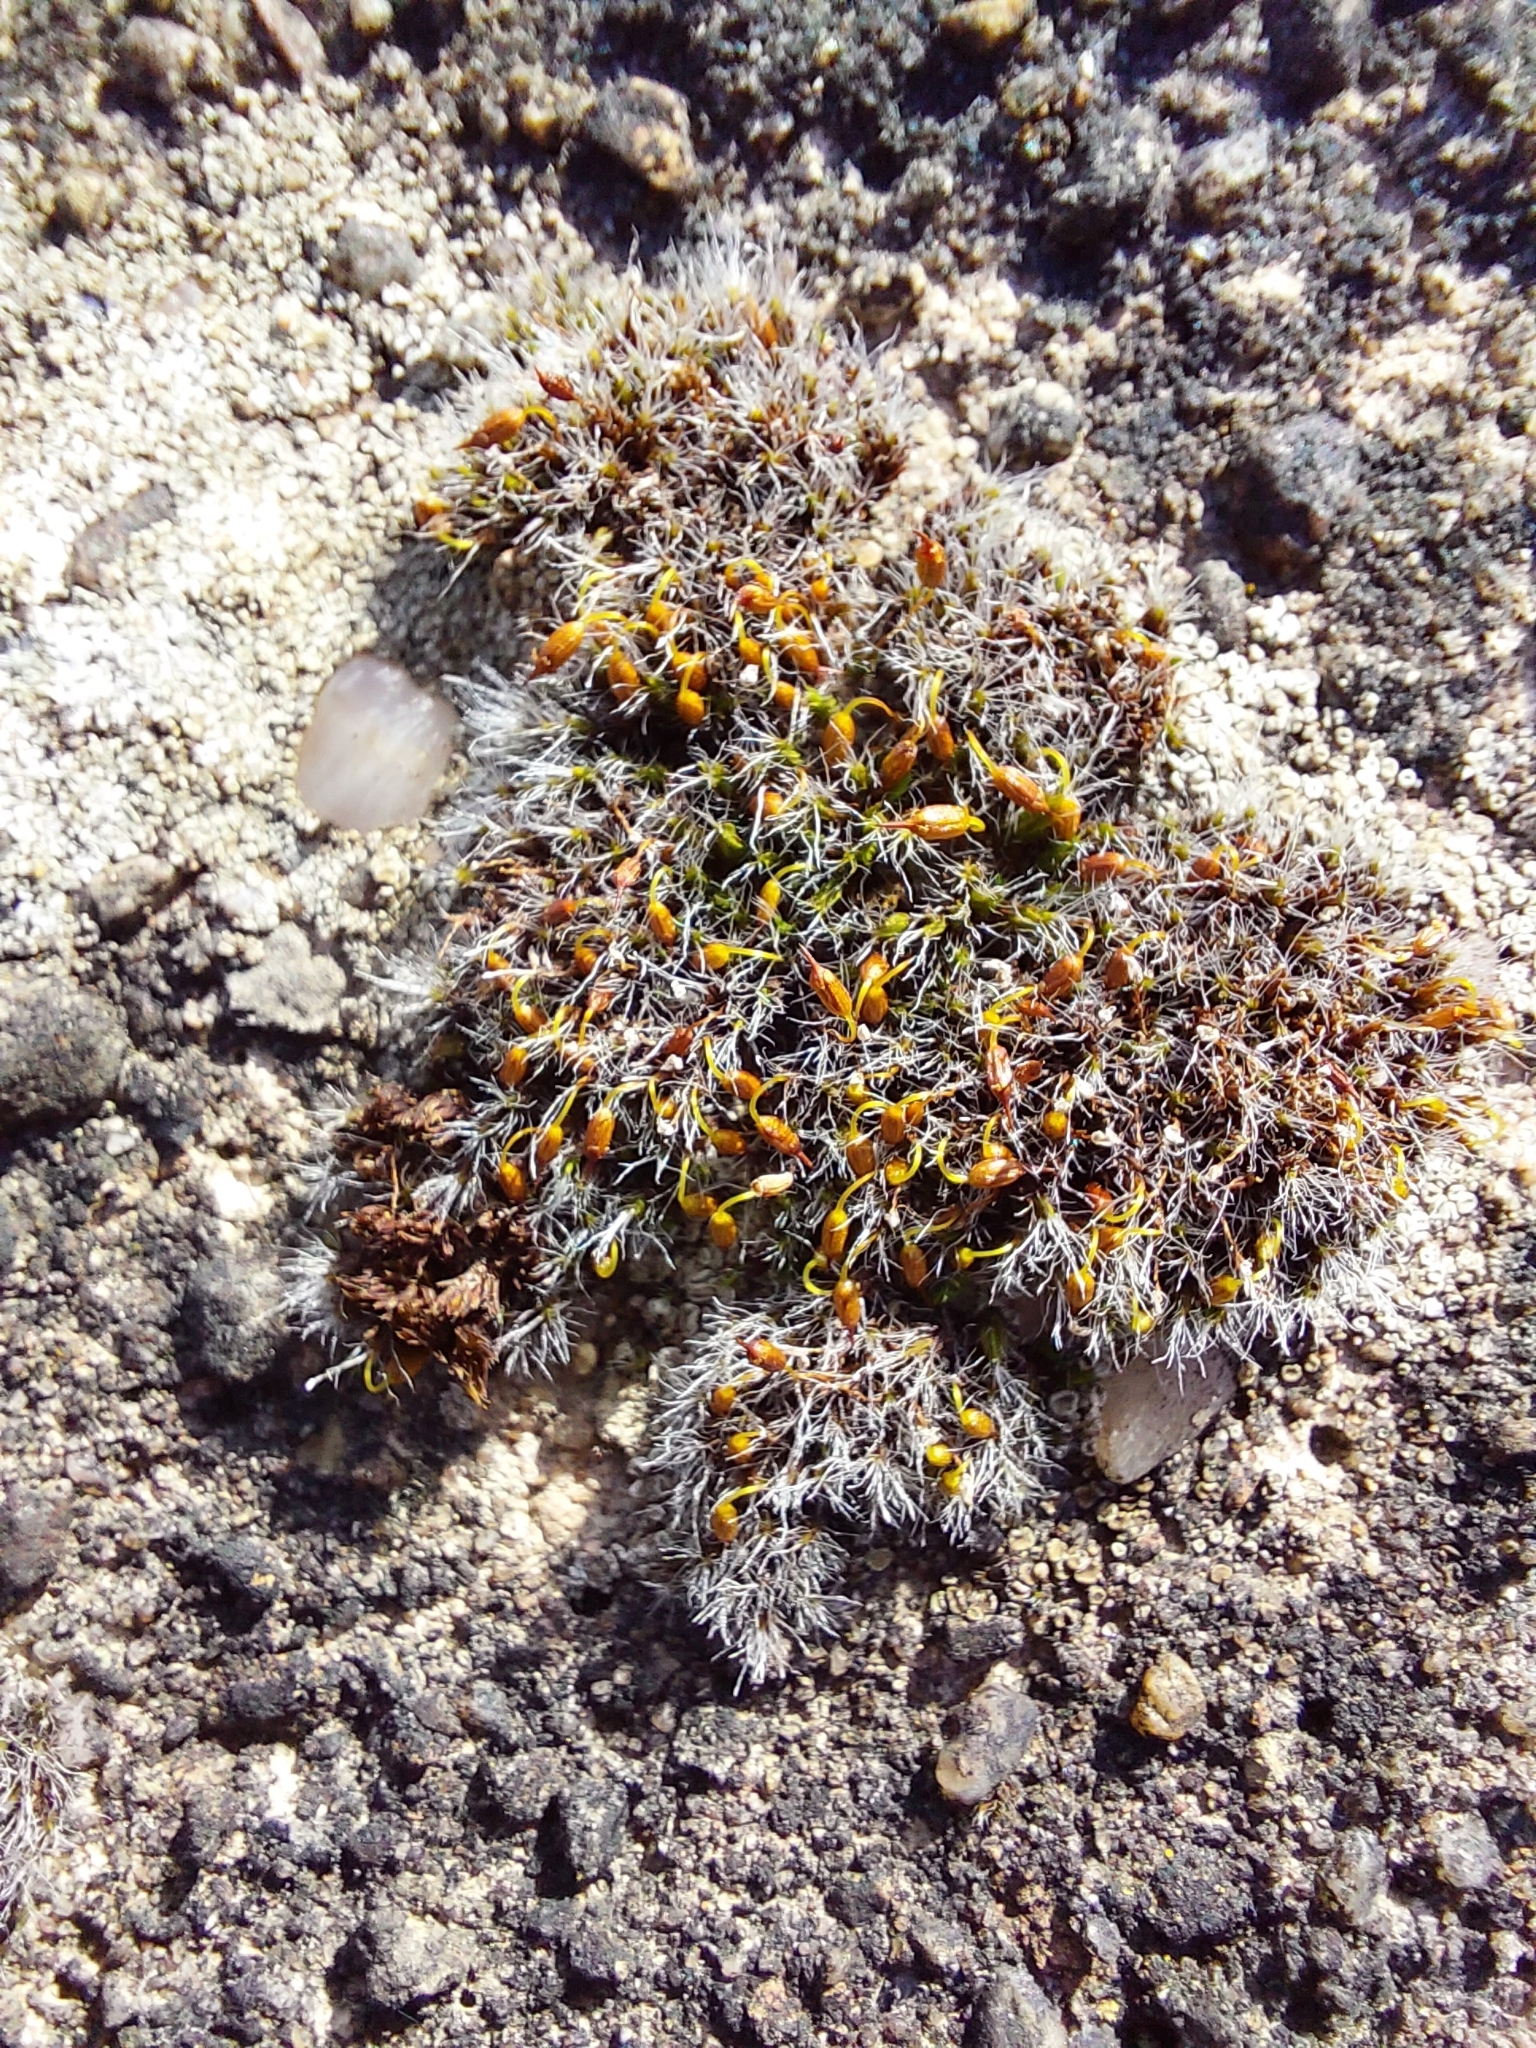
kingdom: Plantae
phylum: Bryophyta
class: Bryopsida
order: Grimmiales
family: Grimmiaceae
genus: Grimmia
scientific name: Grimmia pulvinata
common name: Grey-cushioned grimmia
